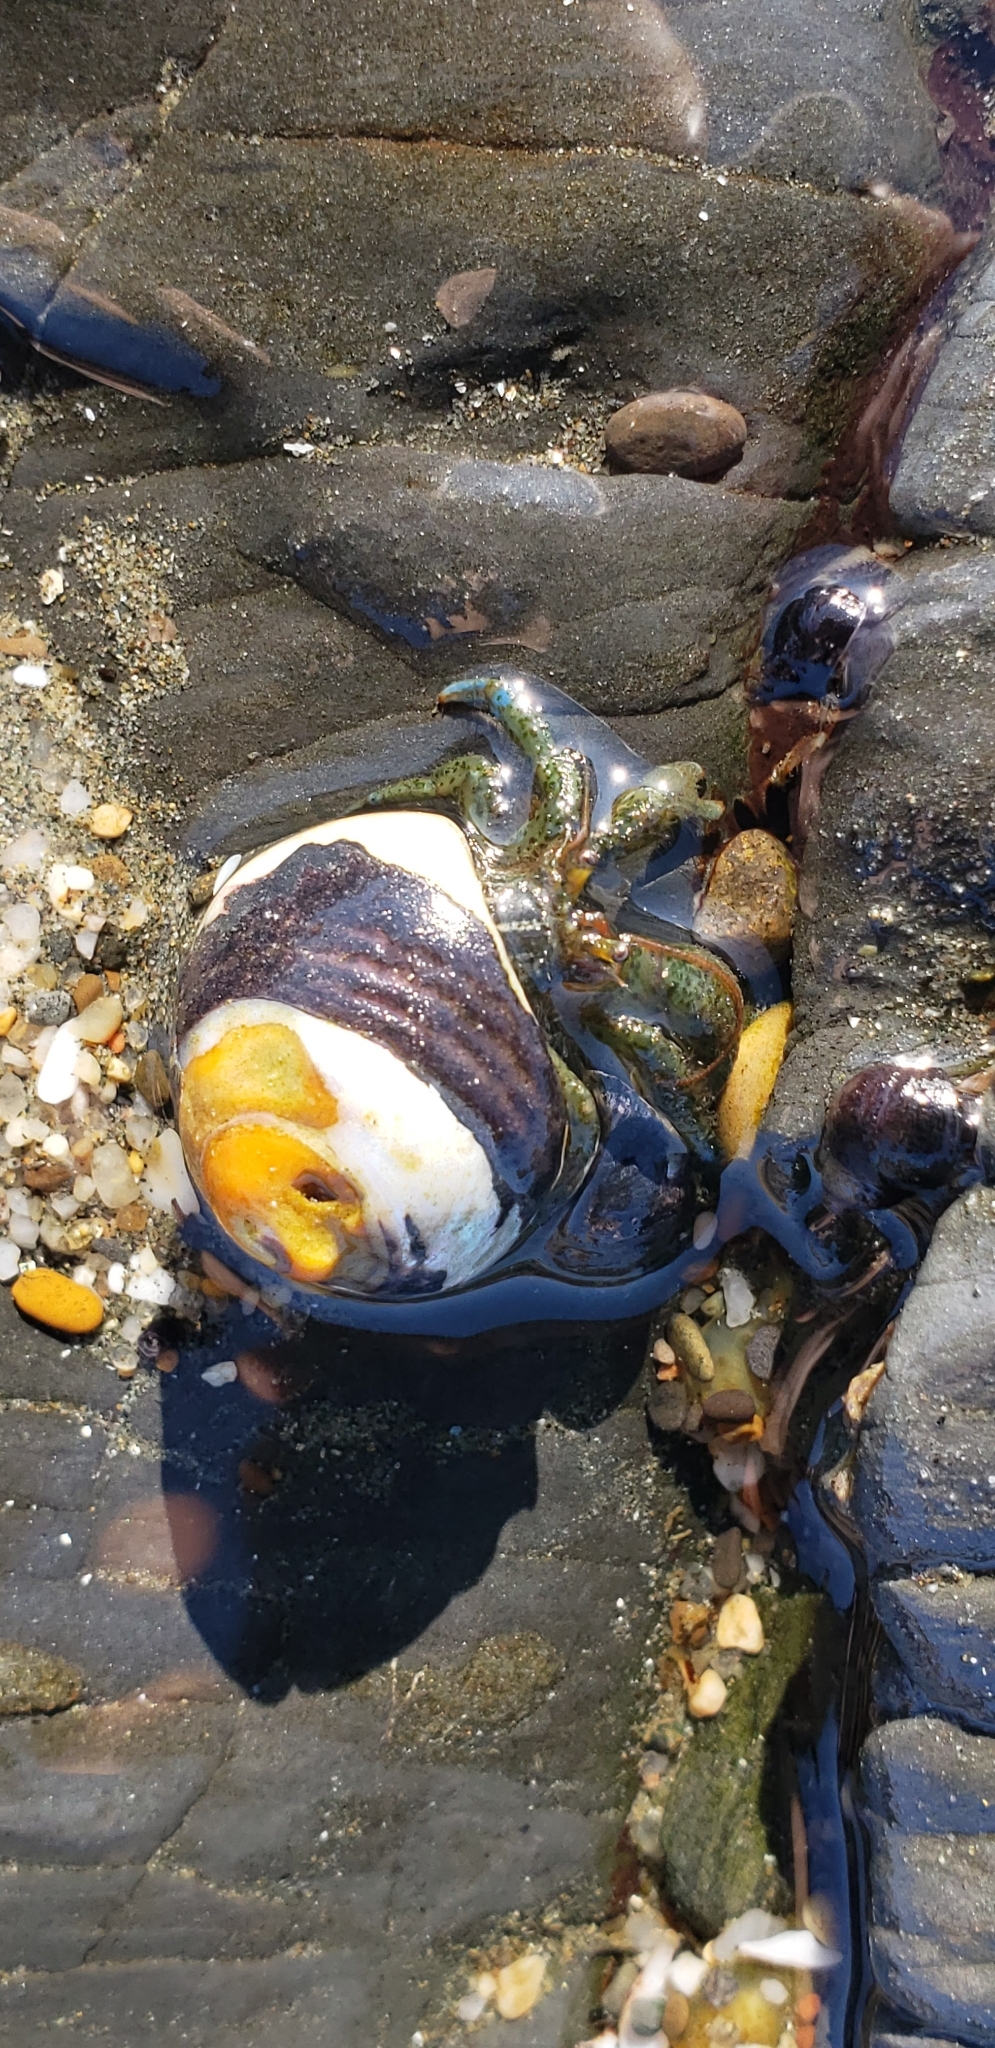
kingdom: Animalia
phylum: Arthropoda
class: Malacostraca
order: Decapoda
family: Paguridae
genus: Pagurus
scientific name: Pagurus samuelis
